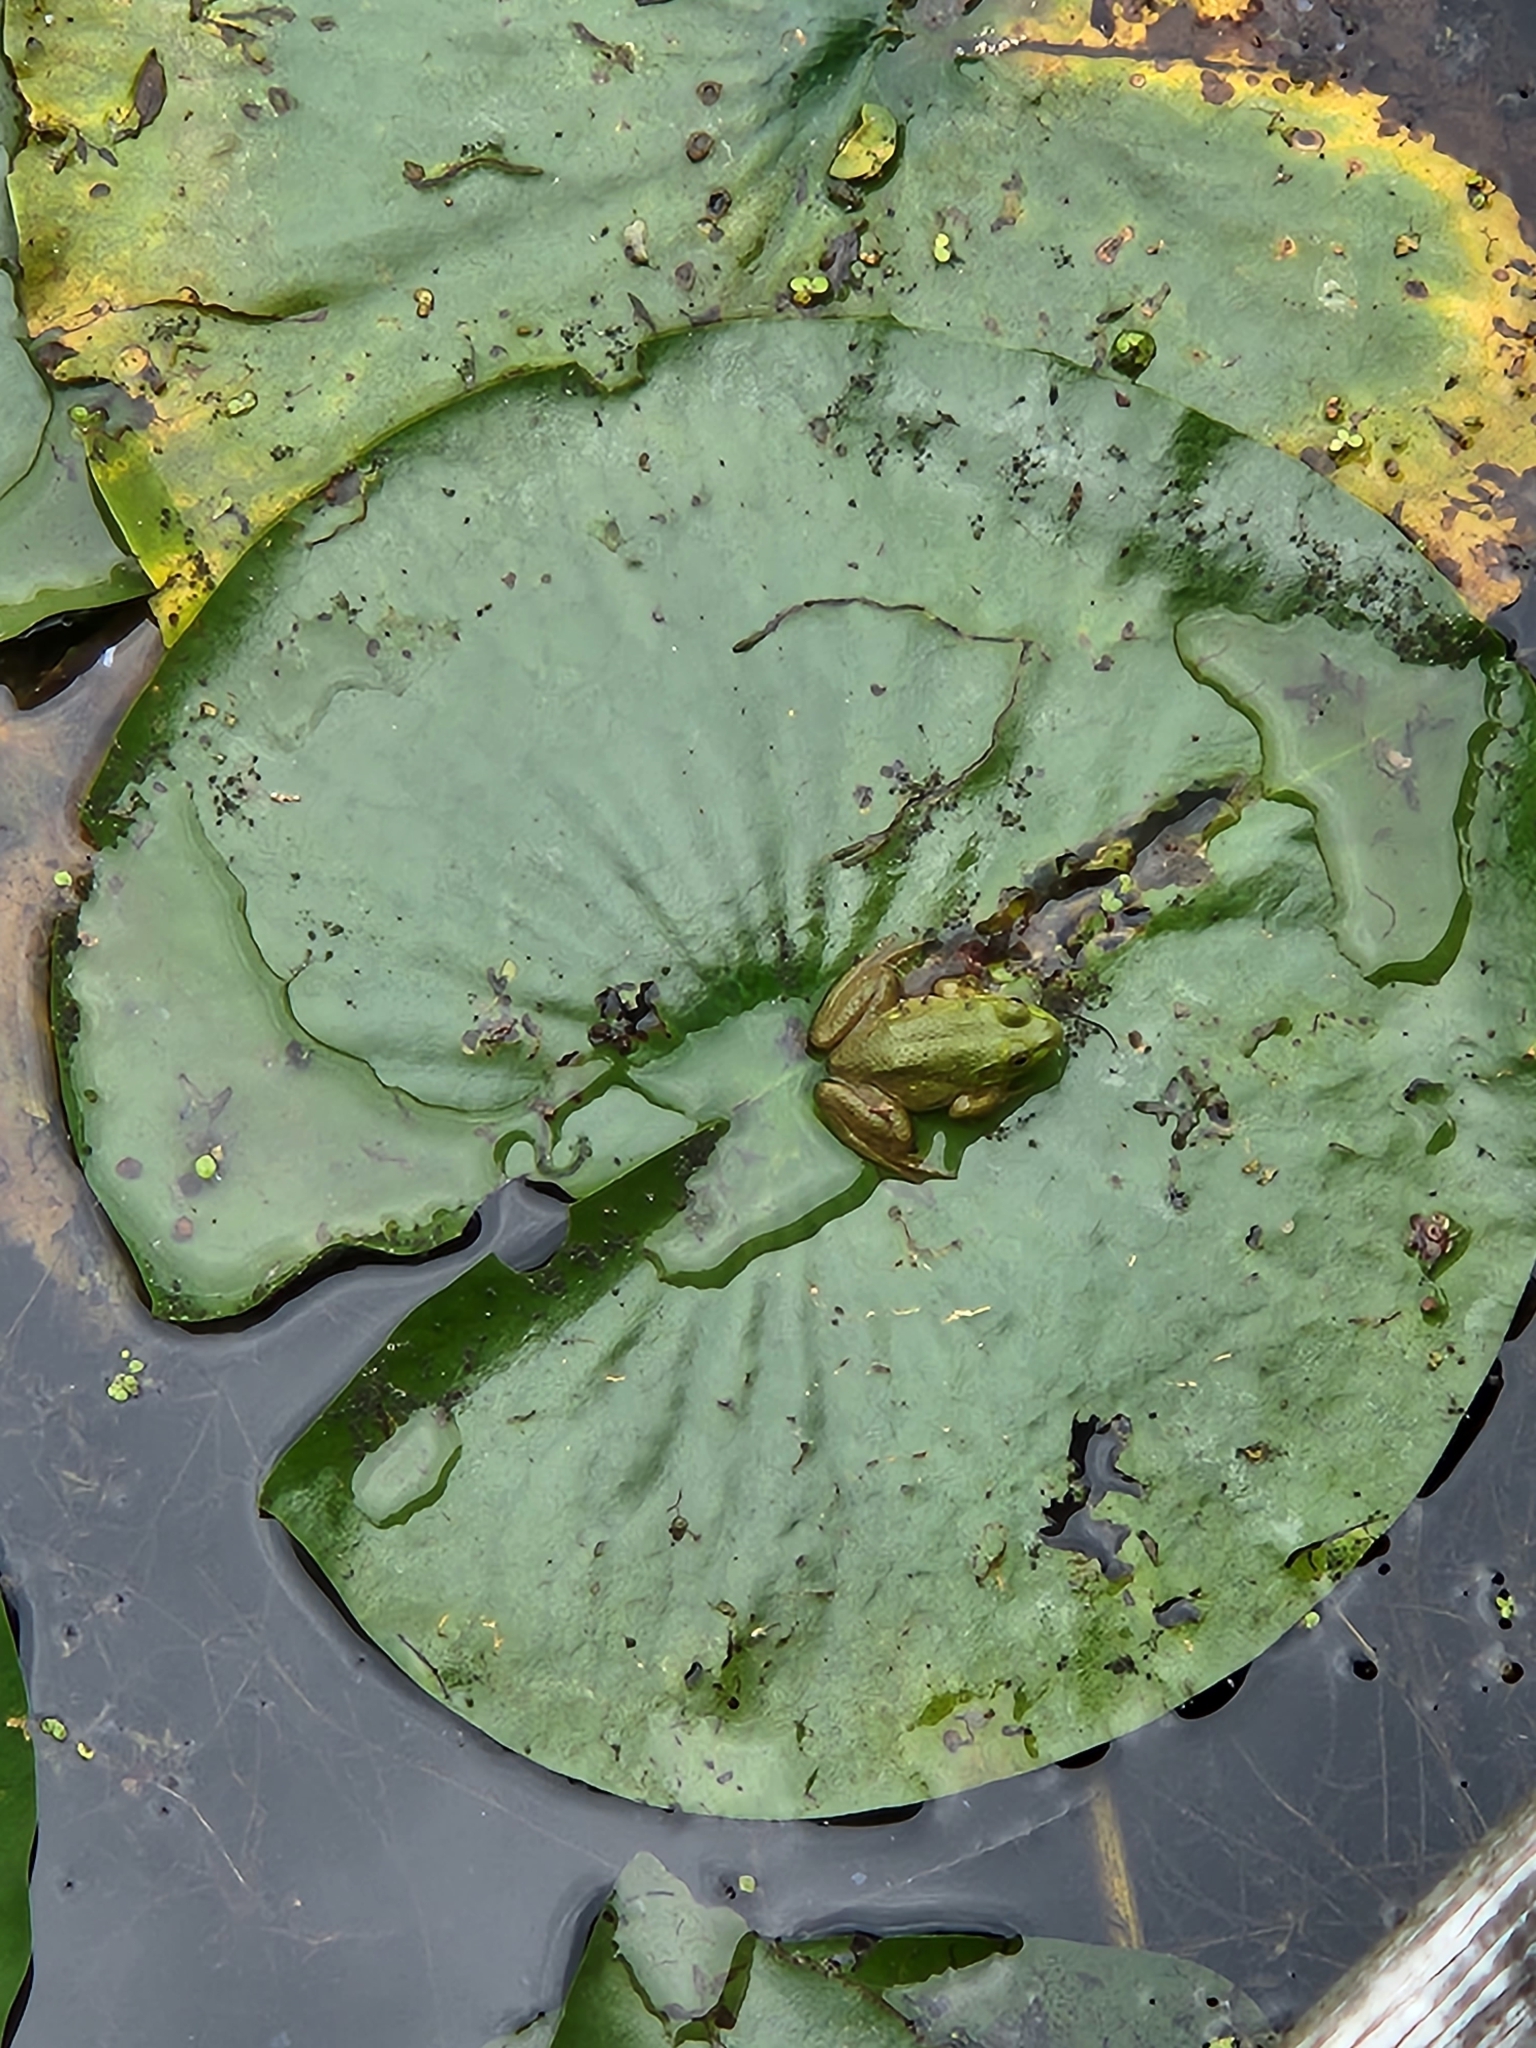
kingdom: Animalia
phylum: Chordata
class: Amphibia
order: Anura
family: Ranidae
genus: Lithobates
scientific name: Lithobates catesbeianus
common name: American bullfrog
